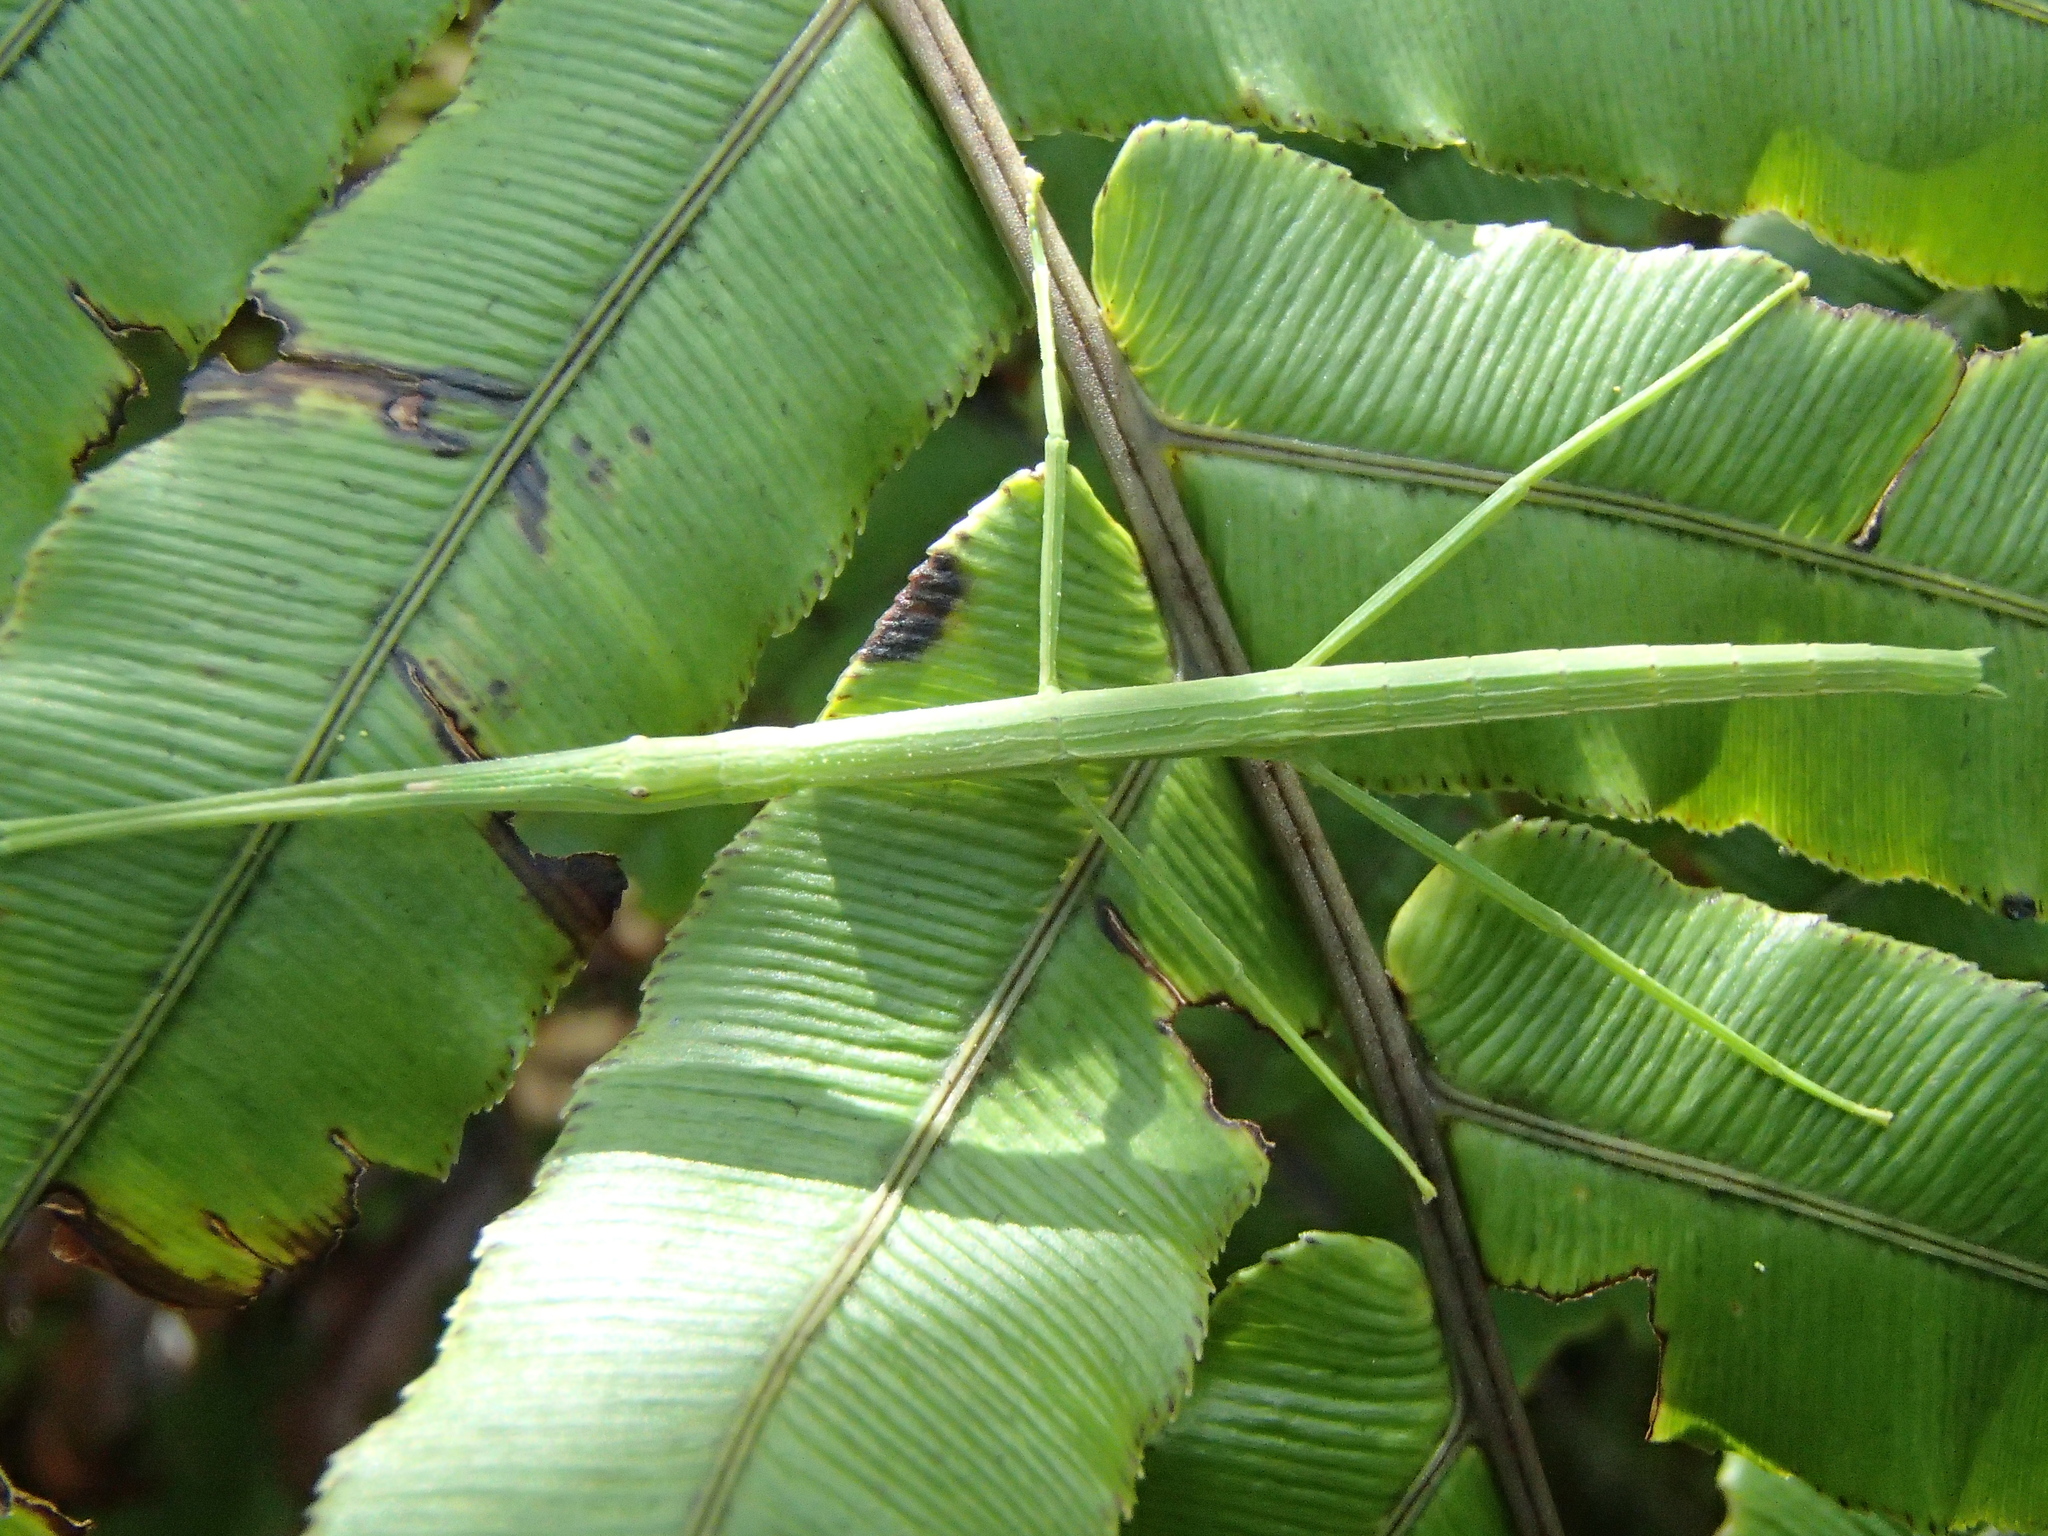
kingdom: Animalia
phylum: Arthropoda
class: Insecta
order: Phasmida
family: Phasmatidae
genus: Tectarchus
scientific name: Tectarchus huttoni
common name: The common ridge-backed stick insect
